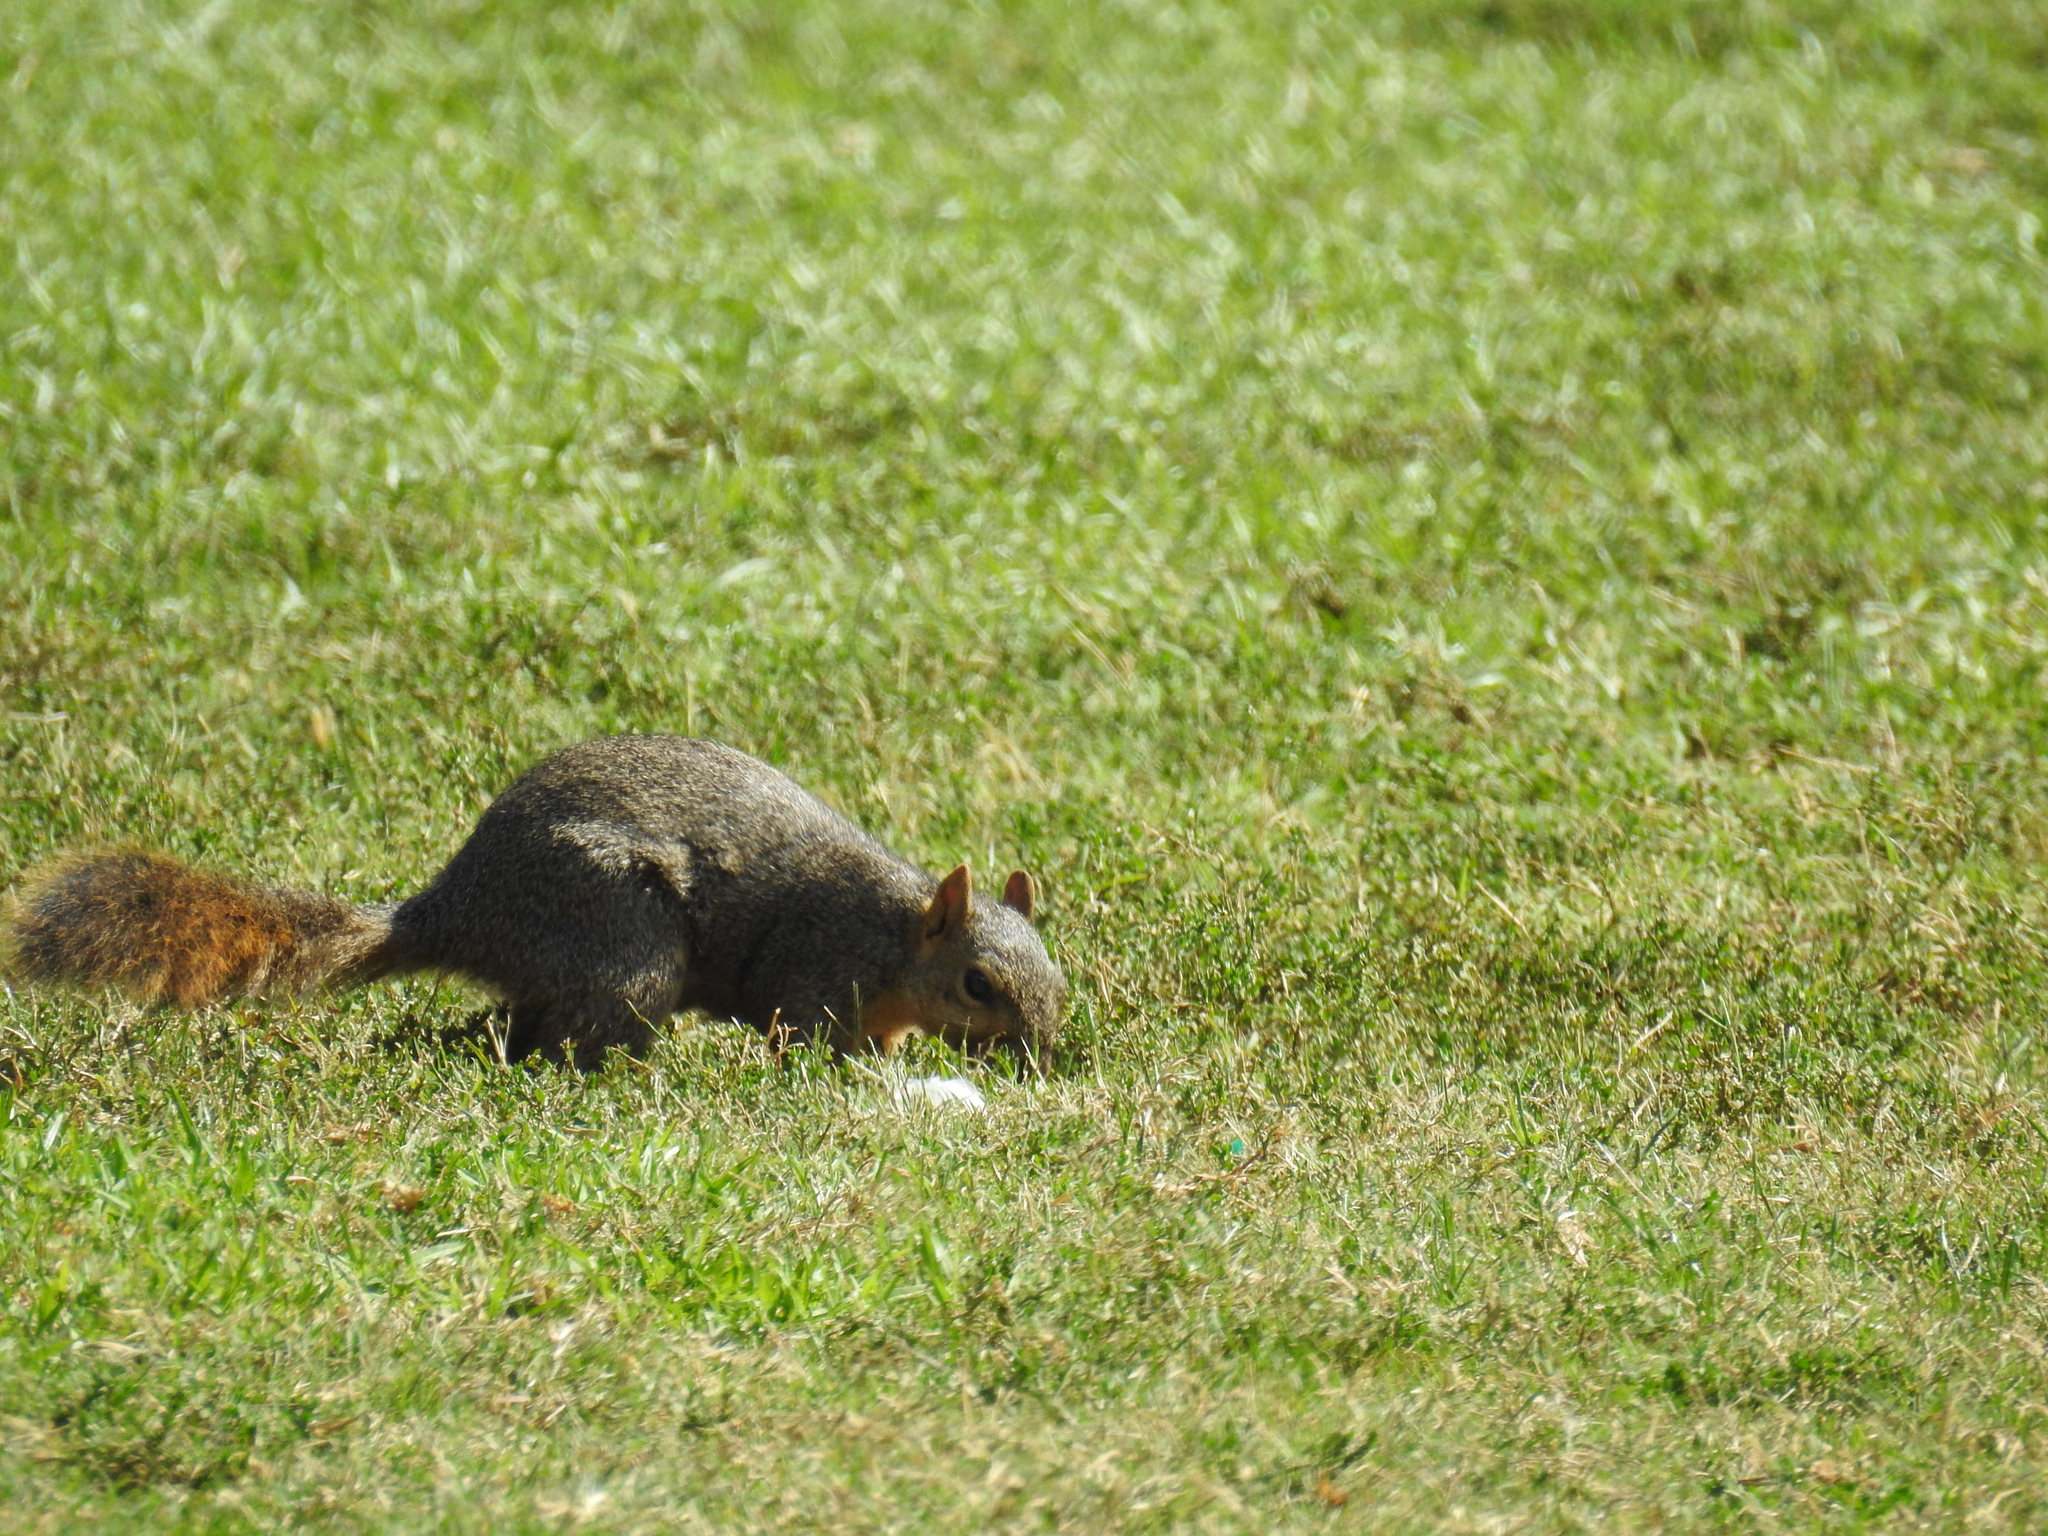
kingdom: Animalia
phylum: Chordata
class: Mammalia
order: Rodentia
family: Sciuridae
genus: Sciurus
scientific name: Sciurus niger
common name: Fox squirrel
